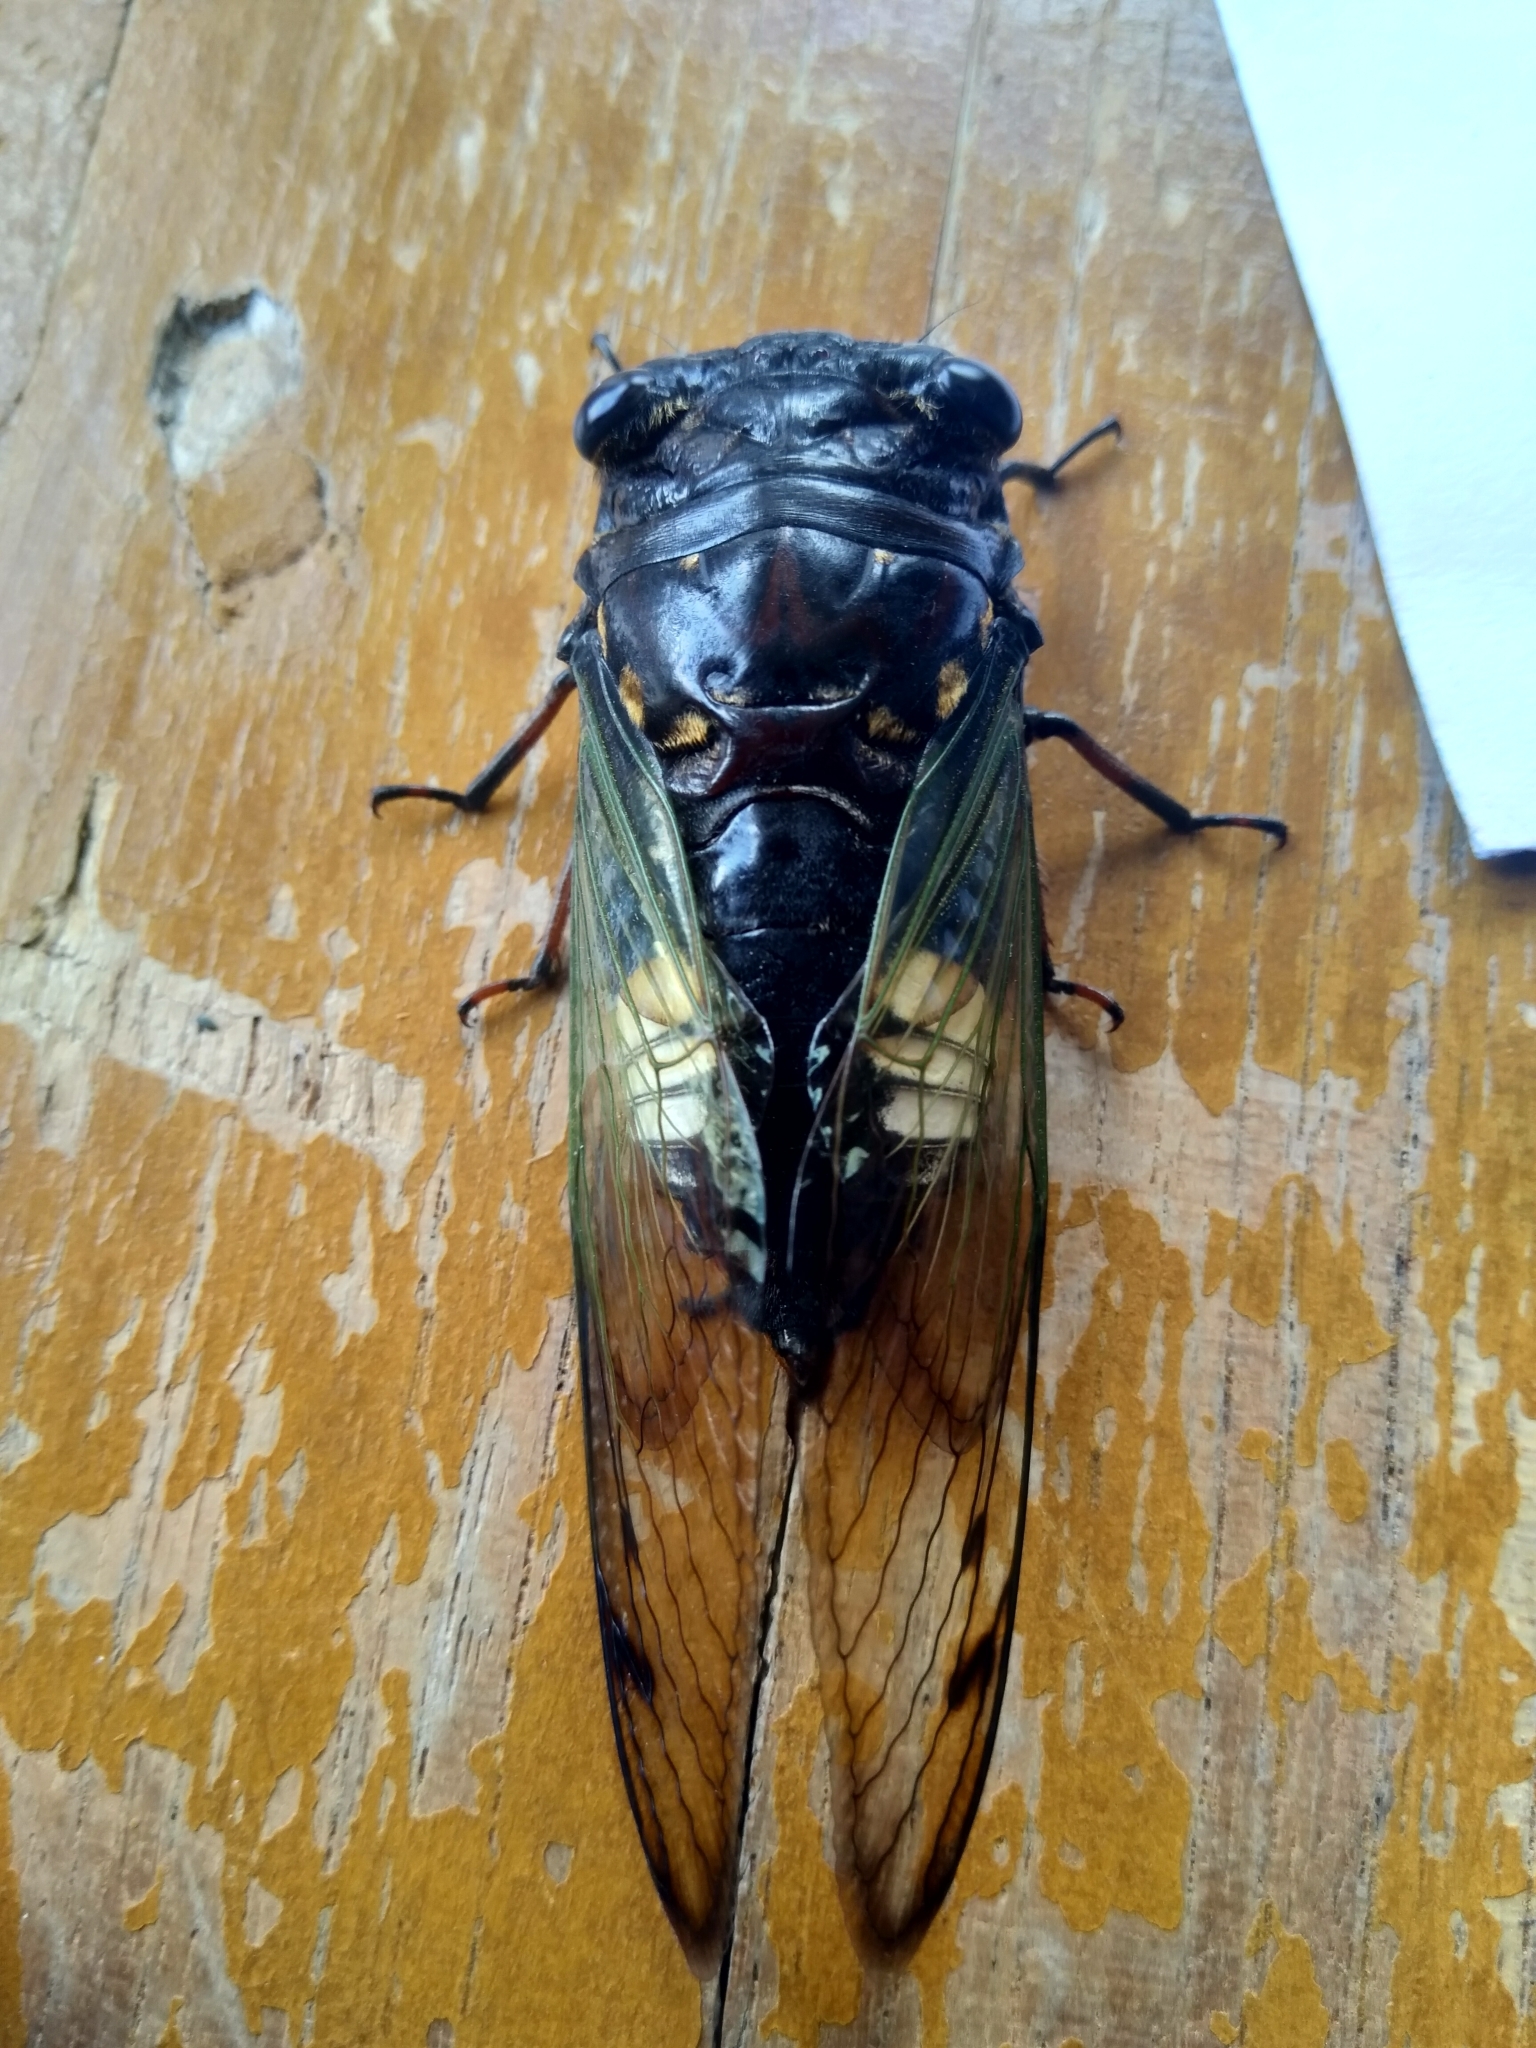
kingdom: Animalia
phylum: Arthropoda
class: Insecta
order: Hemiptera
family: Cicadidae
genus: Cryptotympana
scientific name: Cryptotympana acuta
